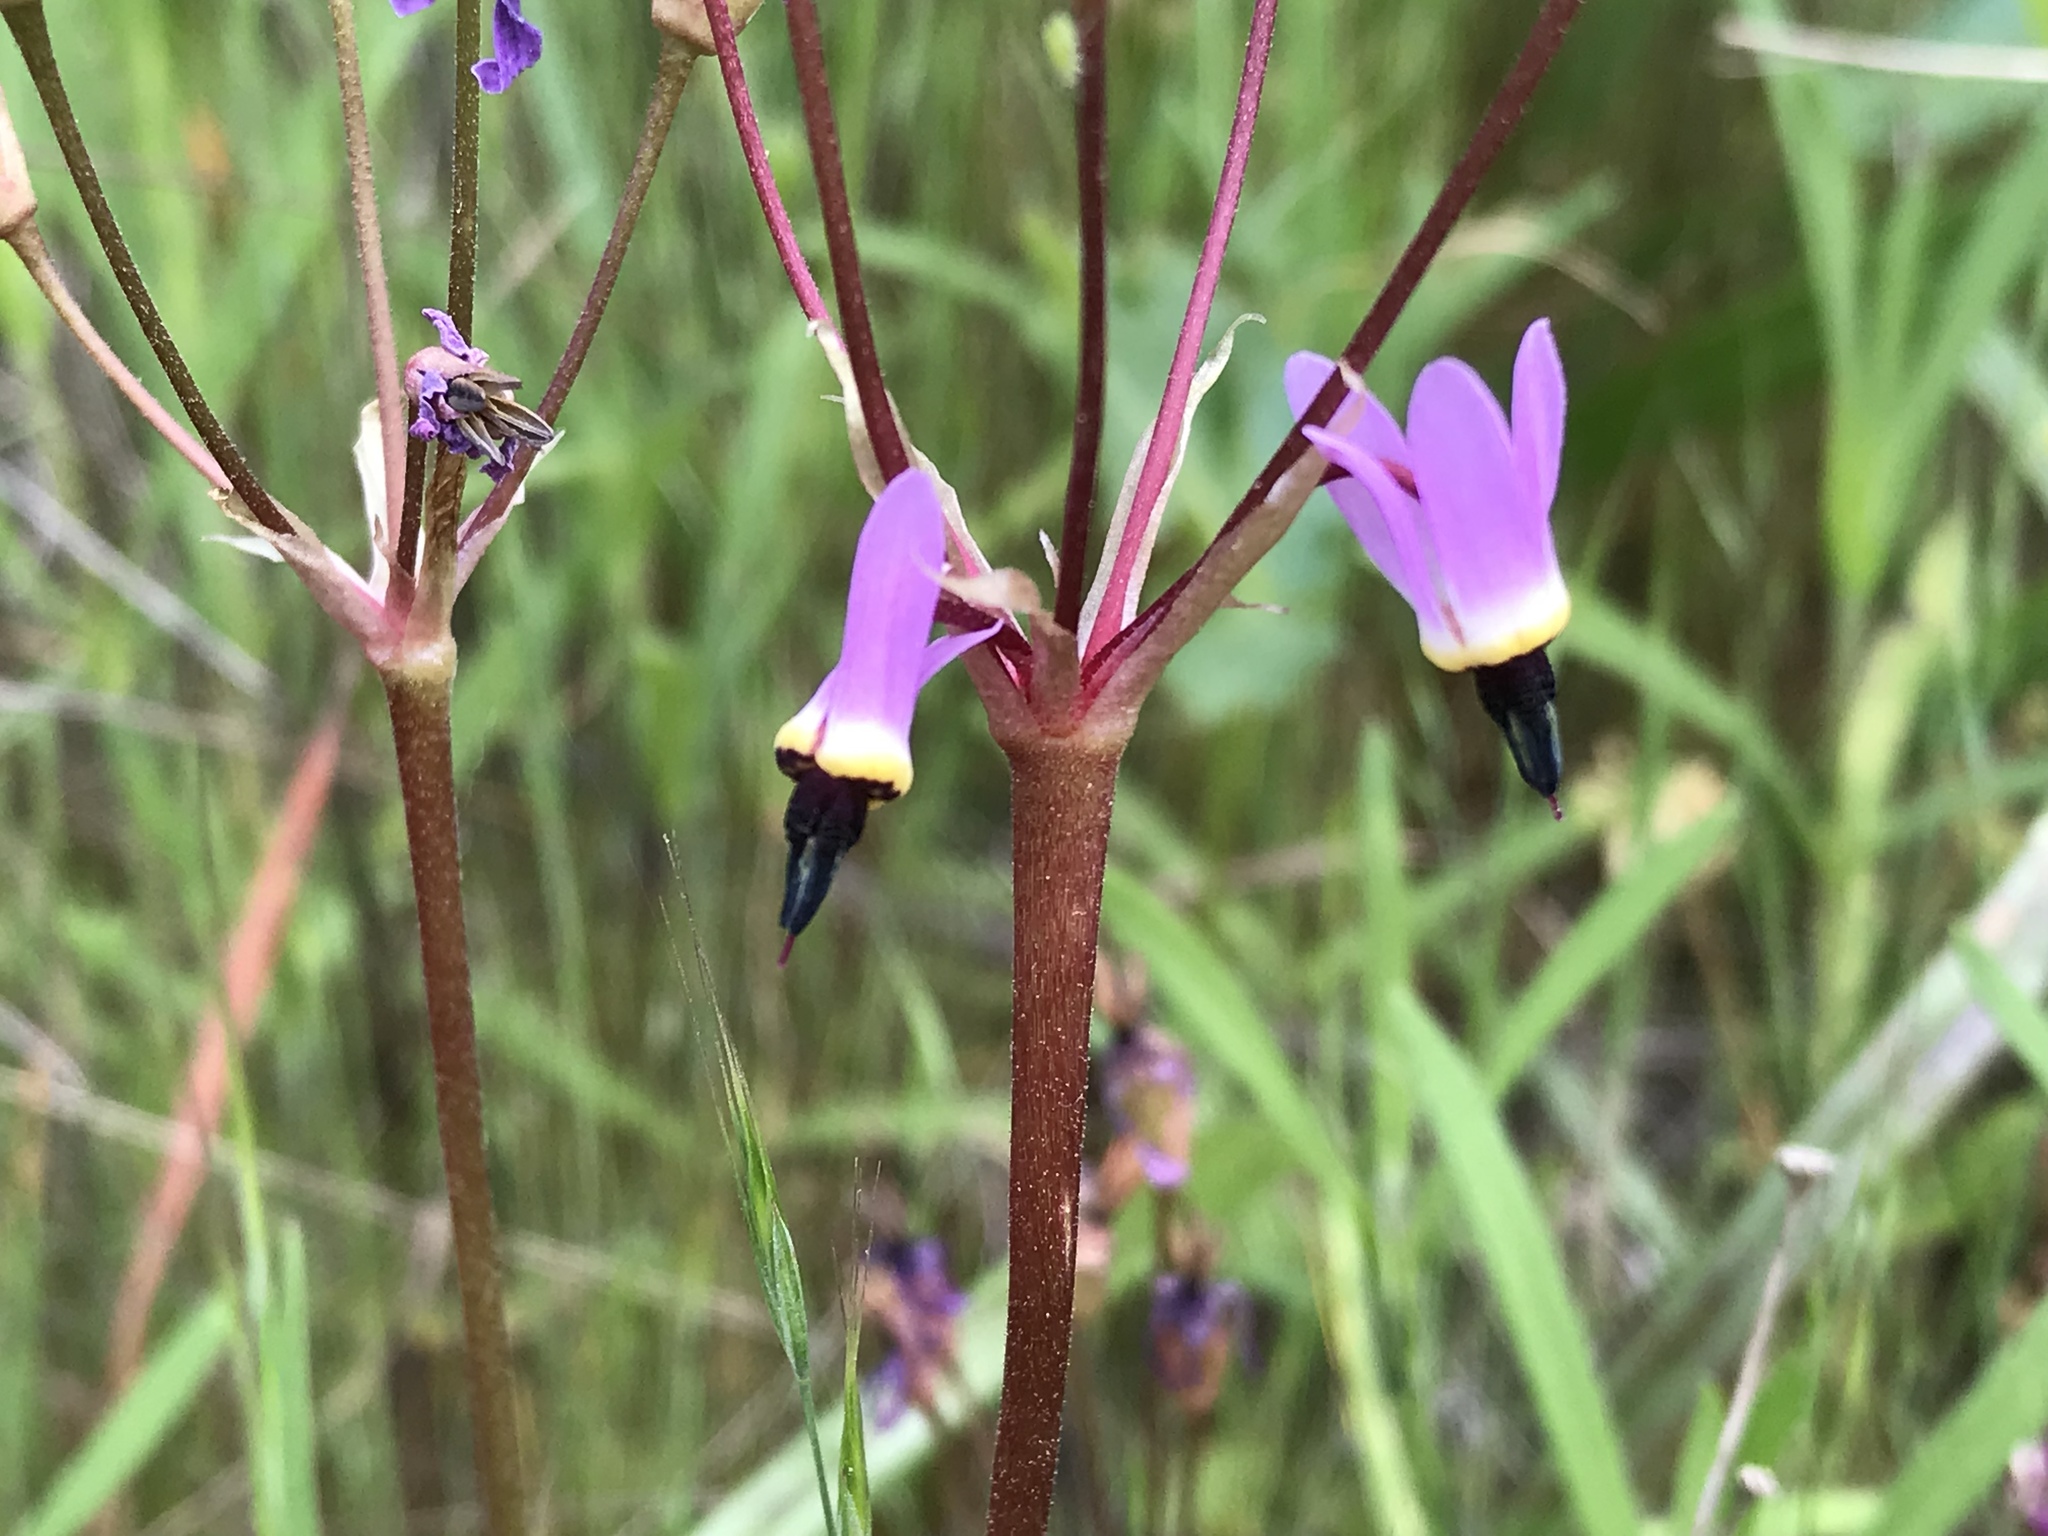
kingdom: Plantae
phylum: Tracheophyta
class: Magnoliopsida
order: Ericales
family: Primulaceae
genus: Dodecatheon
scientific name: Dodecatheon hendersonii
